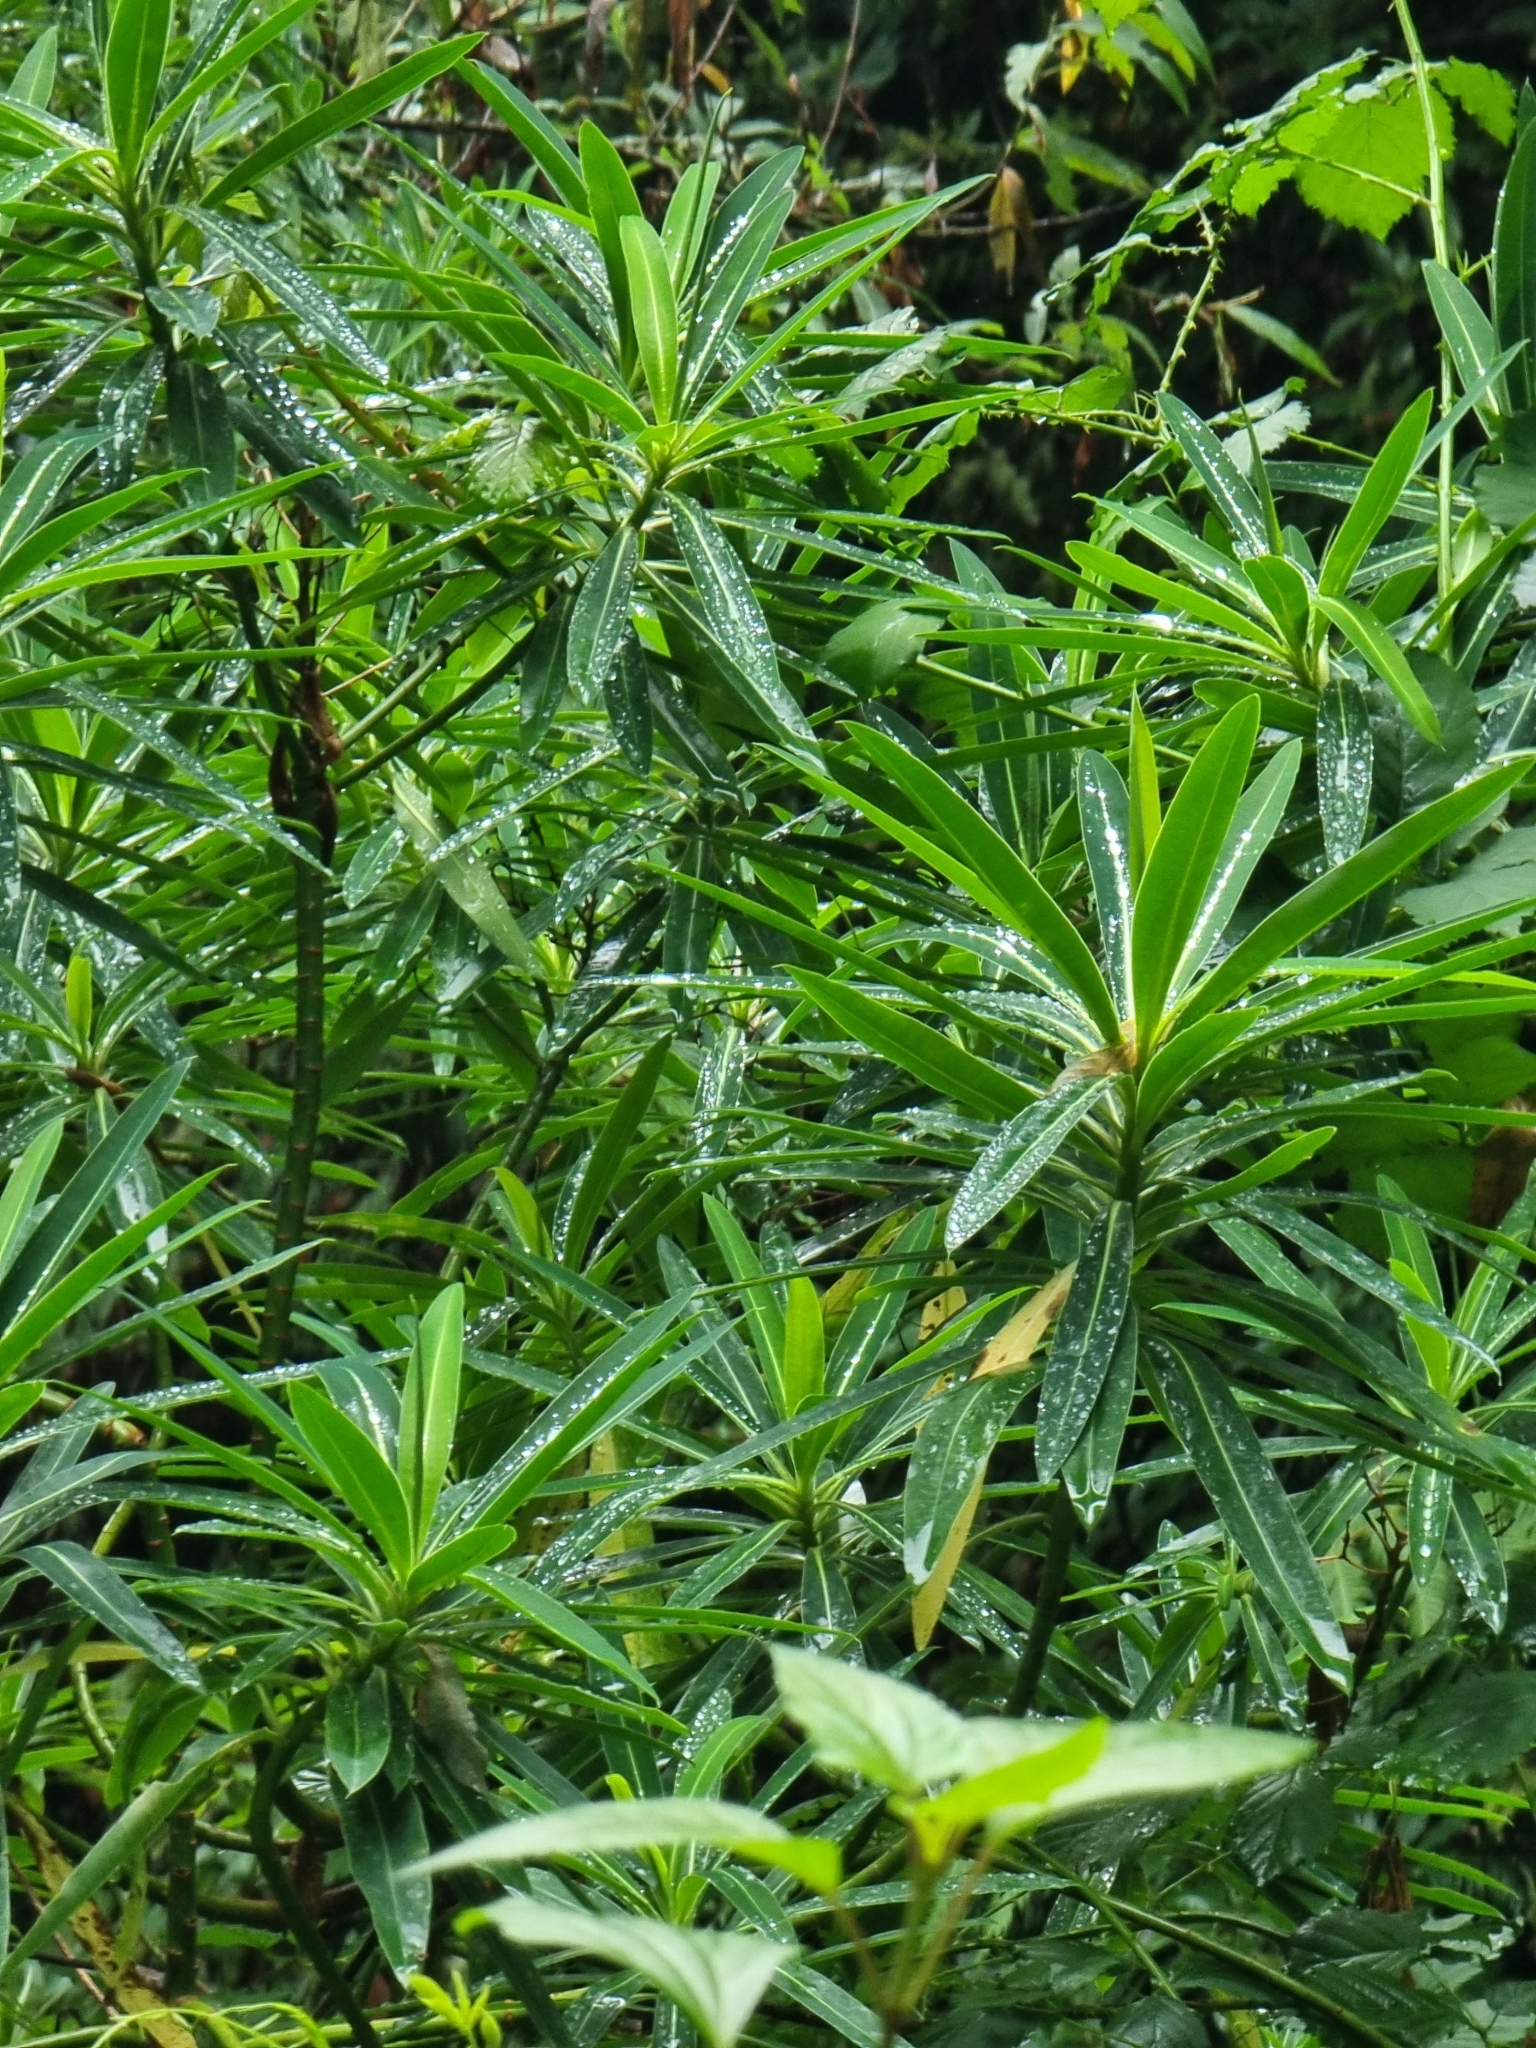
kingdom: Plantae
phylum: Tracheophyta
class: Magnoliopsida
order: Malpighiales
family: Euphorbiaceae
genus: Euphorbia
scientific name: Euphorbia mellifera
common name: Canary spurge
